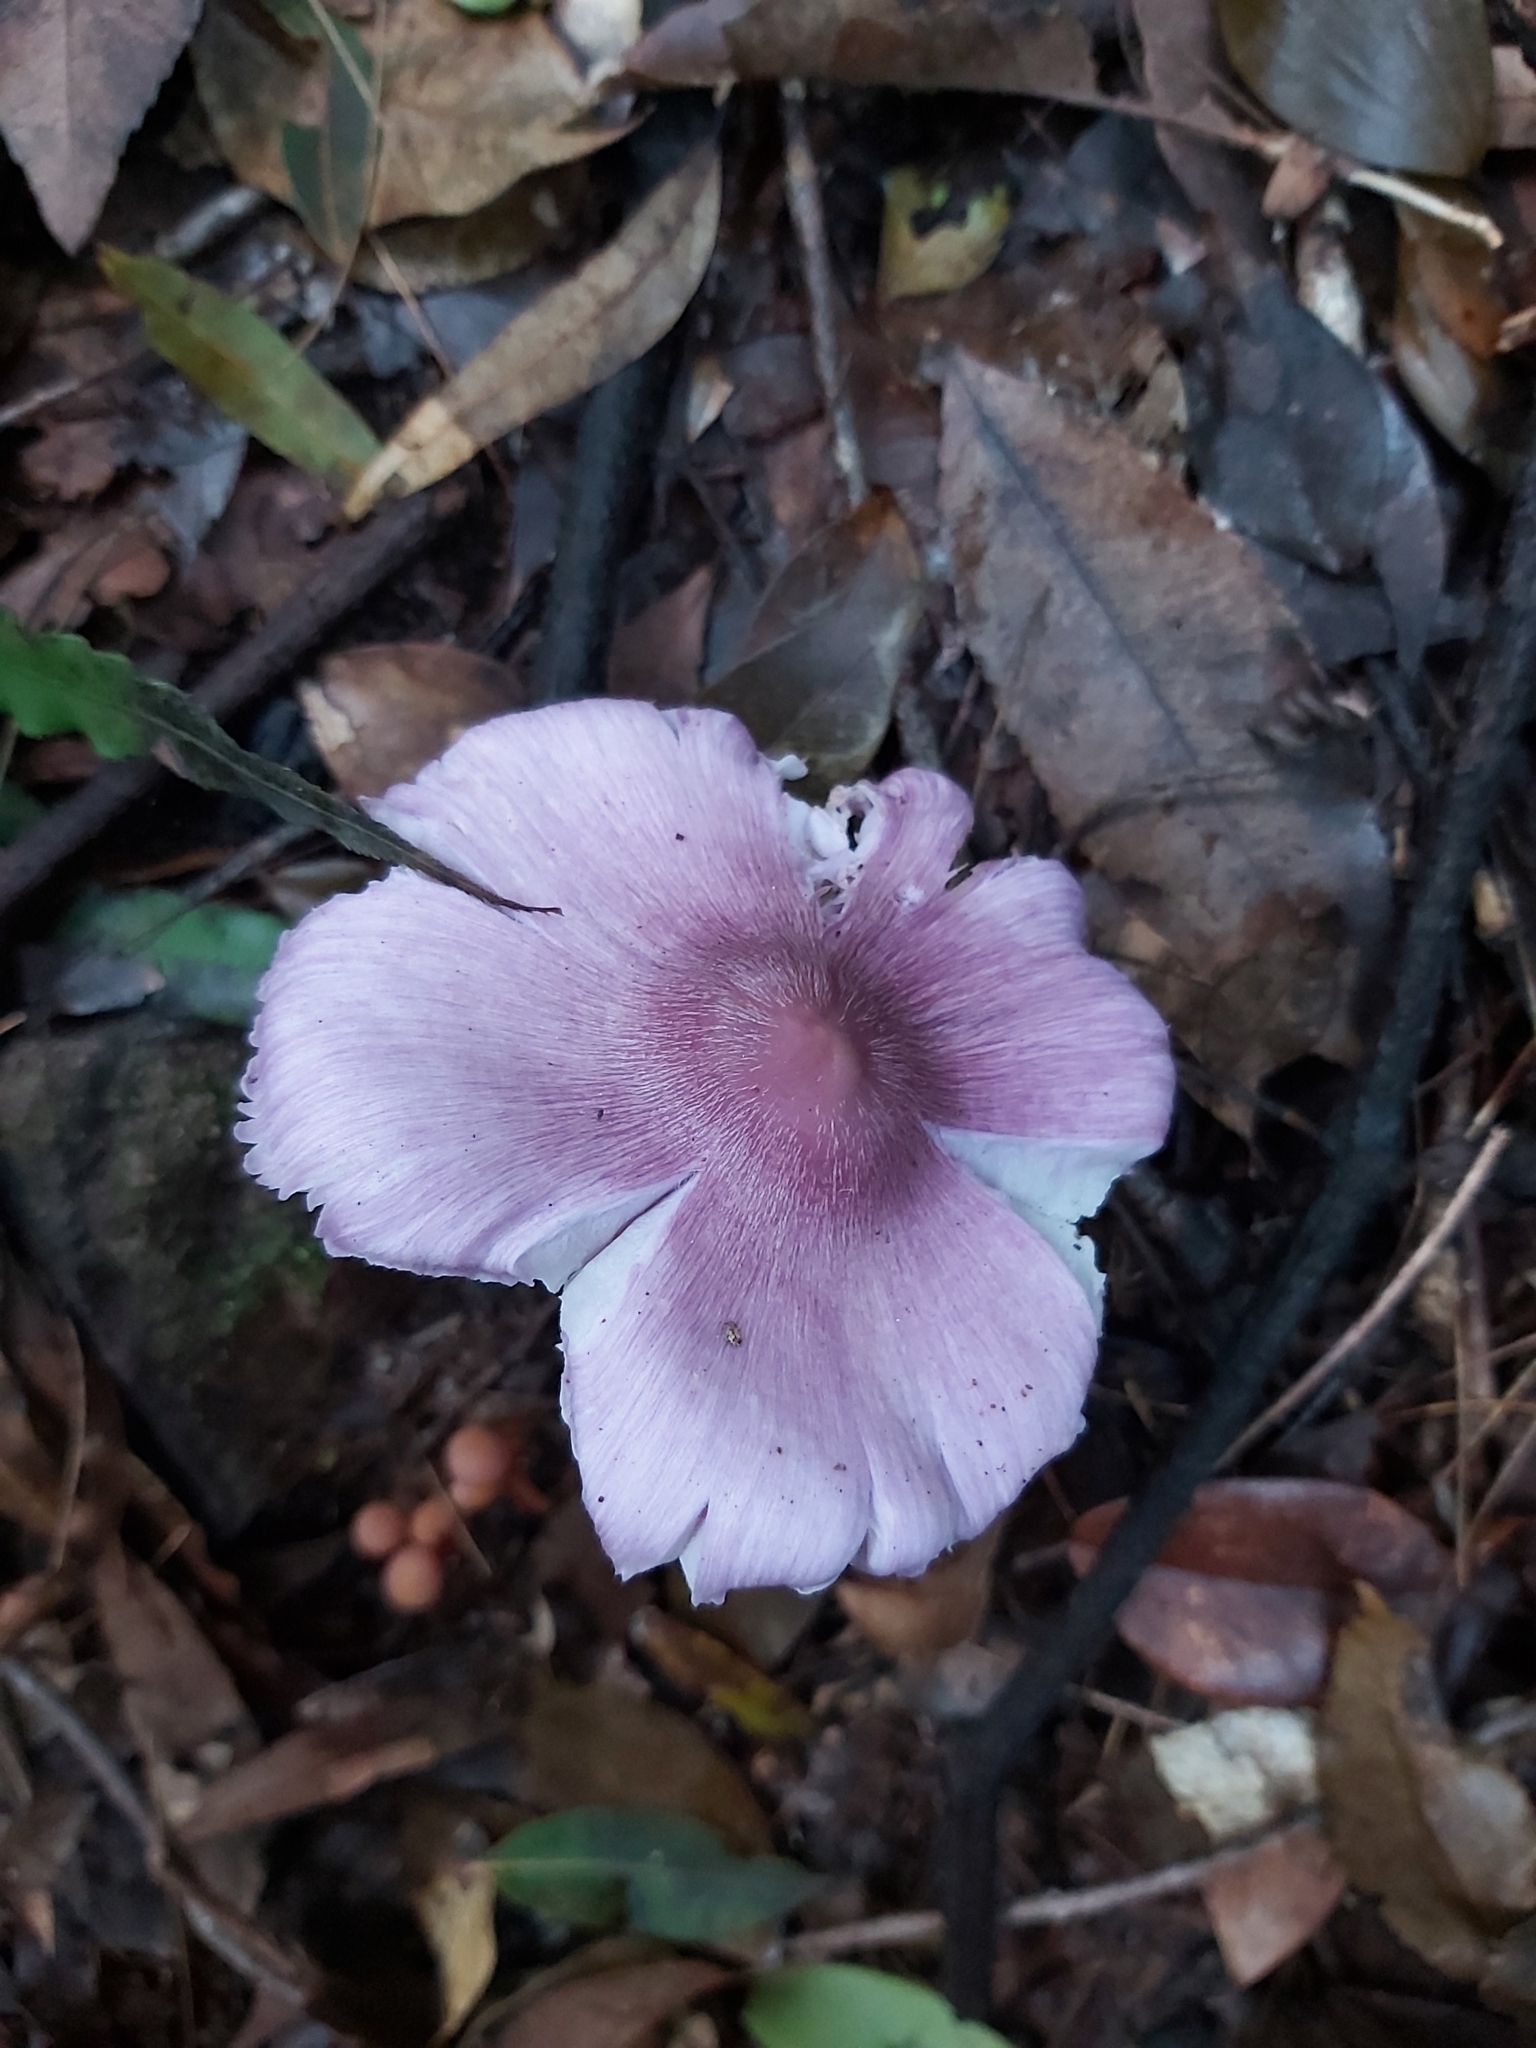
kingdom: Fungi
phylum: Basidiomycota
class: Agaricomycetes
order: Agaricales
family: Hygrophoraceae
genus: Porpolomopsis
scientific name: Porpolomopsis lewelliniae
